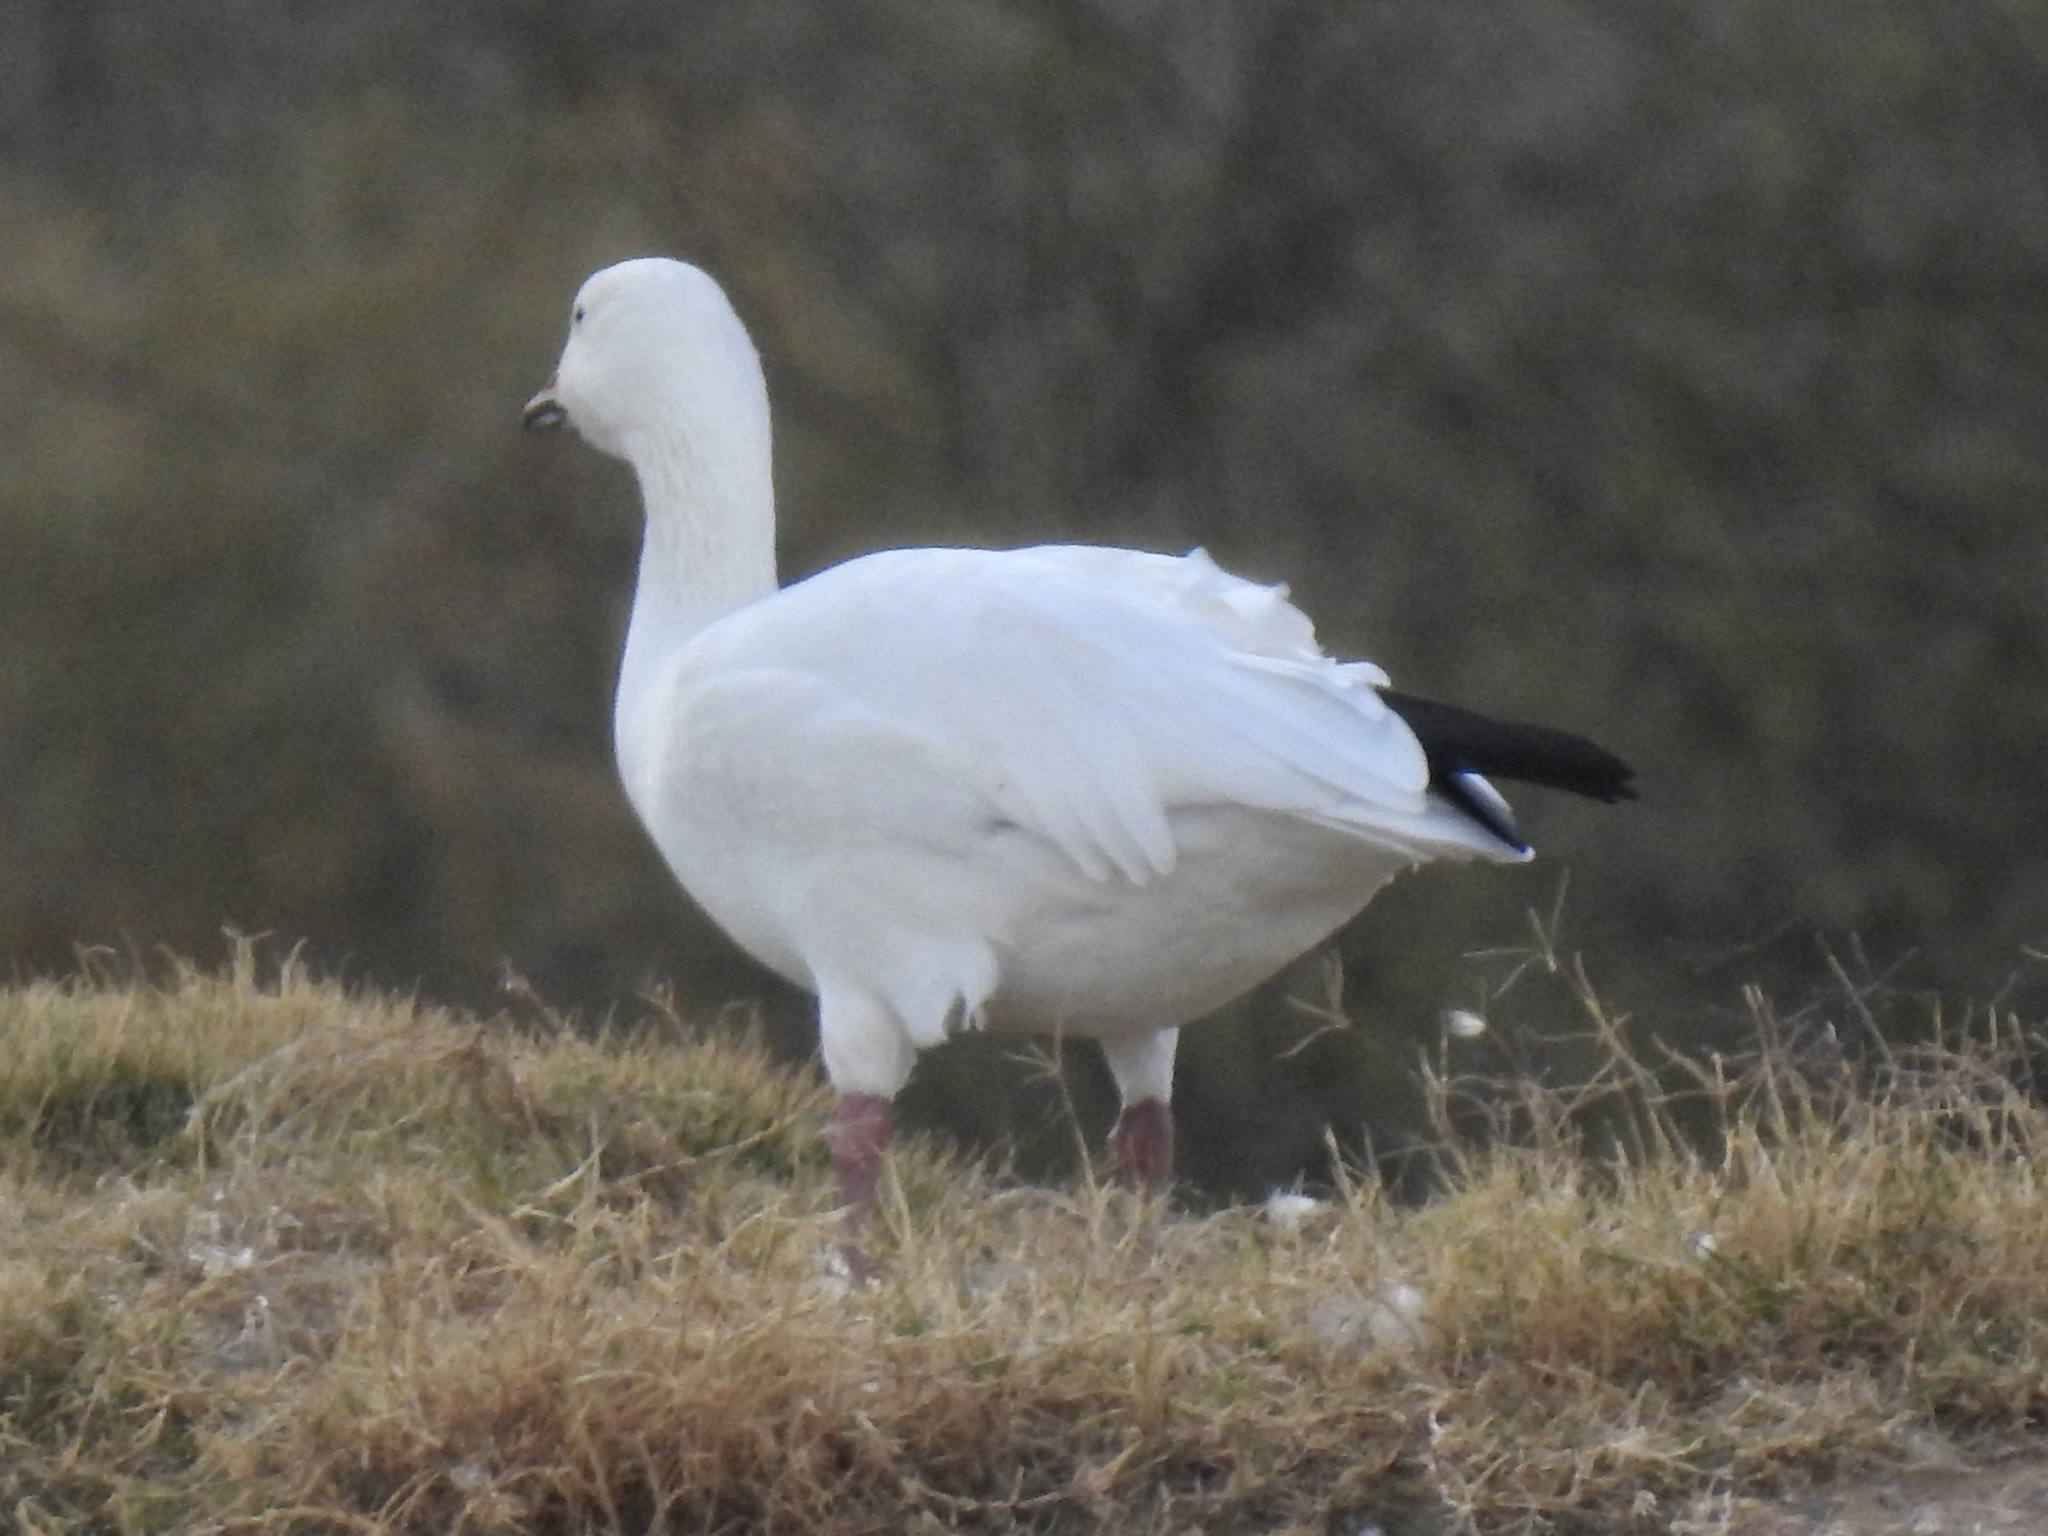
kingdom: Animalia
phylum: Chordata
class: Aves
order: Anseriformes
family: Anatidae
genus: Anser
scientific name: Anser caerulescens
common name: Snow goose
